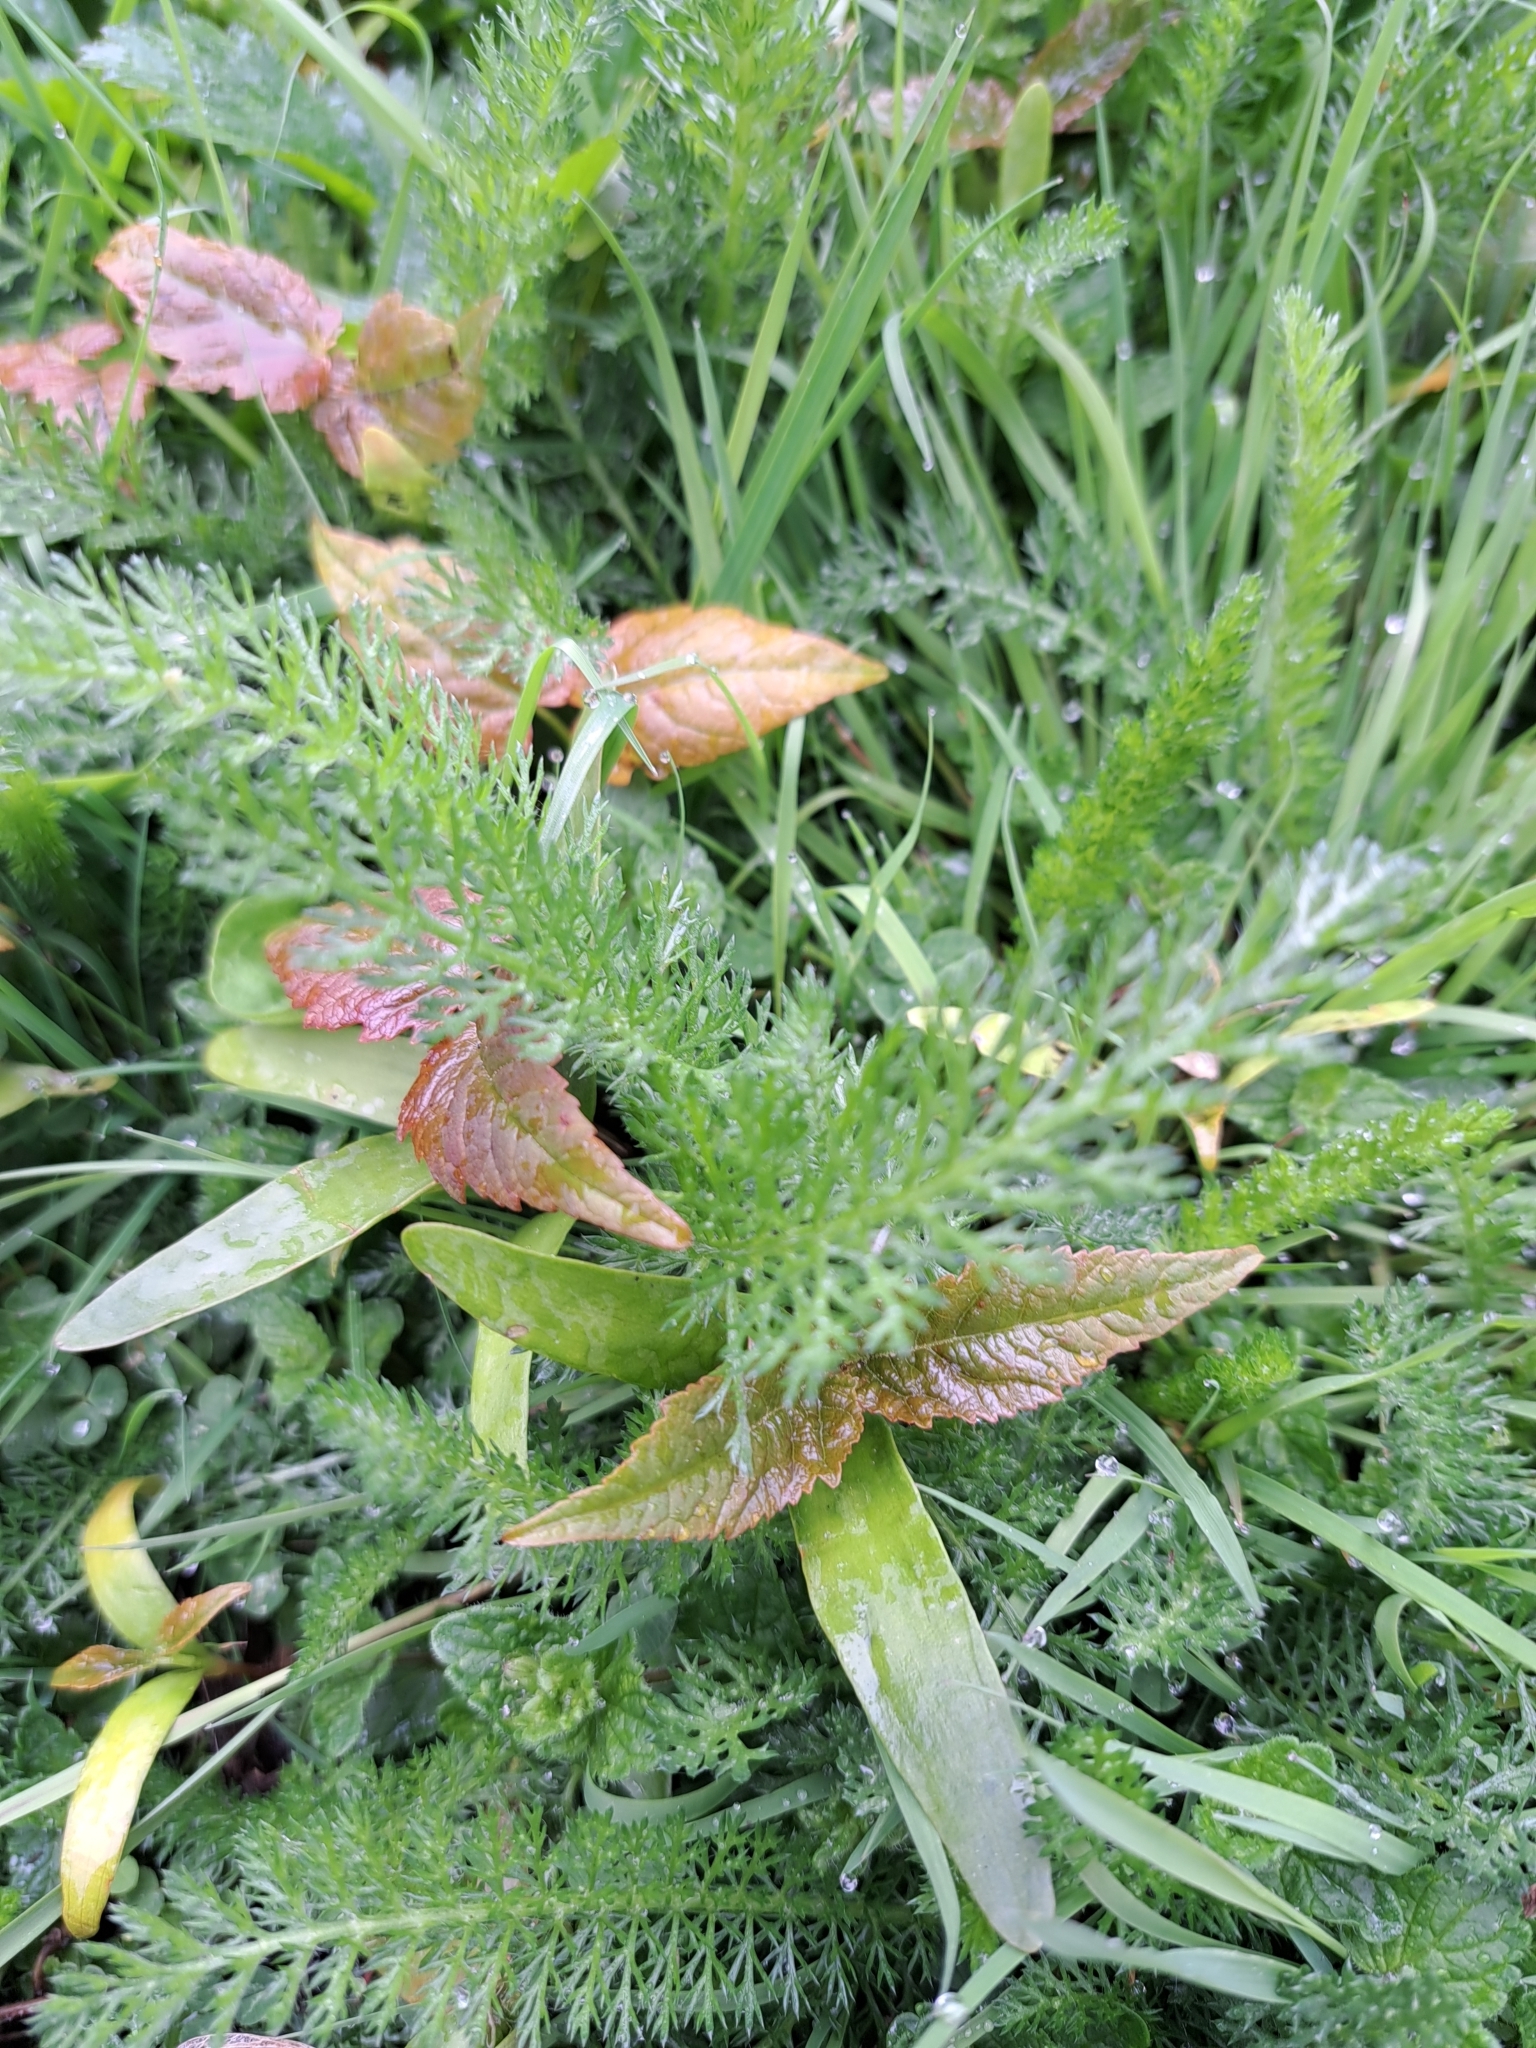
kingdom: Plantae
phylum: Tracheophyta
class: Magnoliopsida
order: Asterales
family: Asteraceae
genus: Achillea
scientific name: Achillea millefolium
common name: Yarrow
